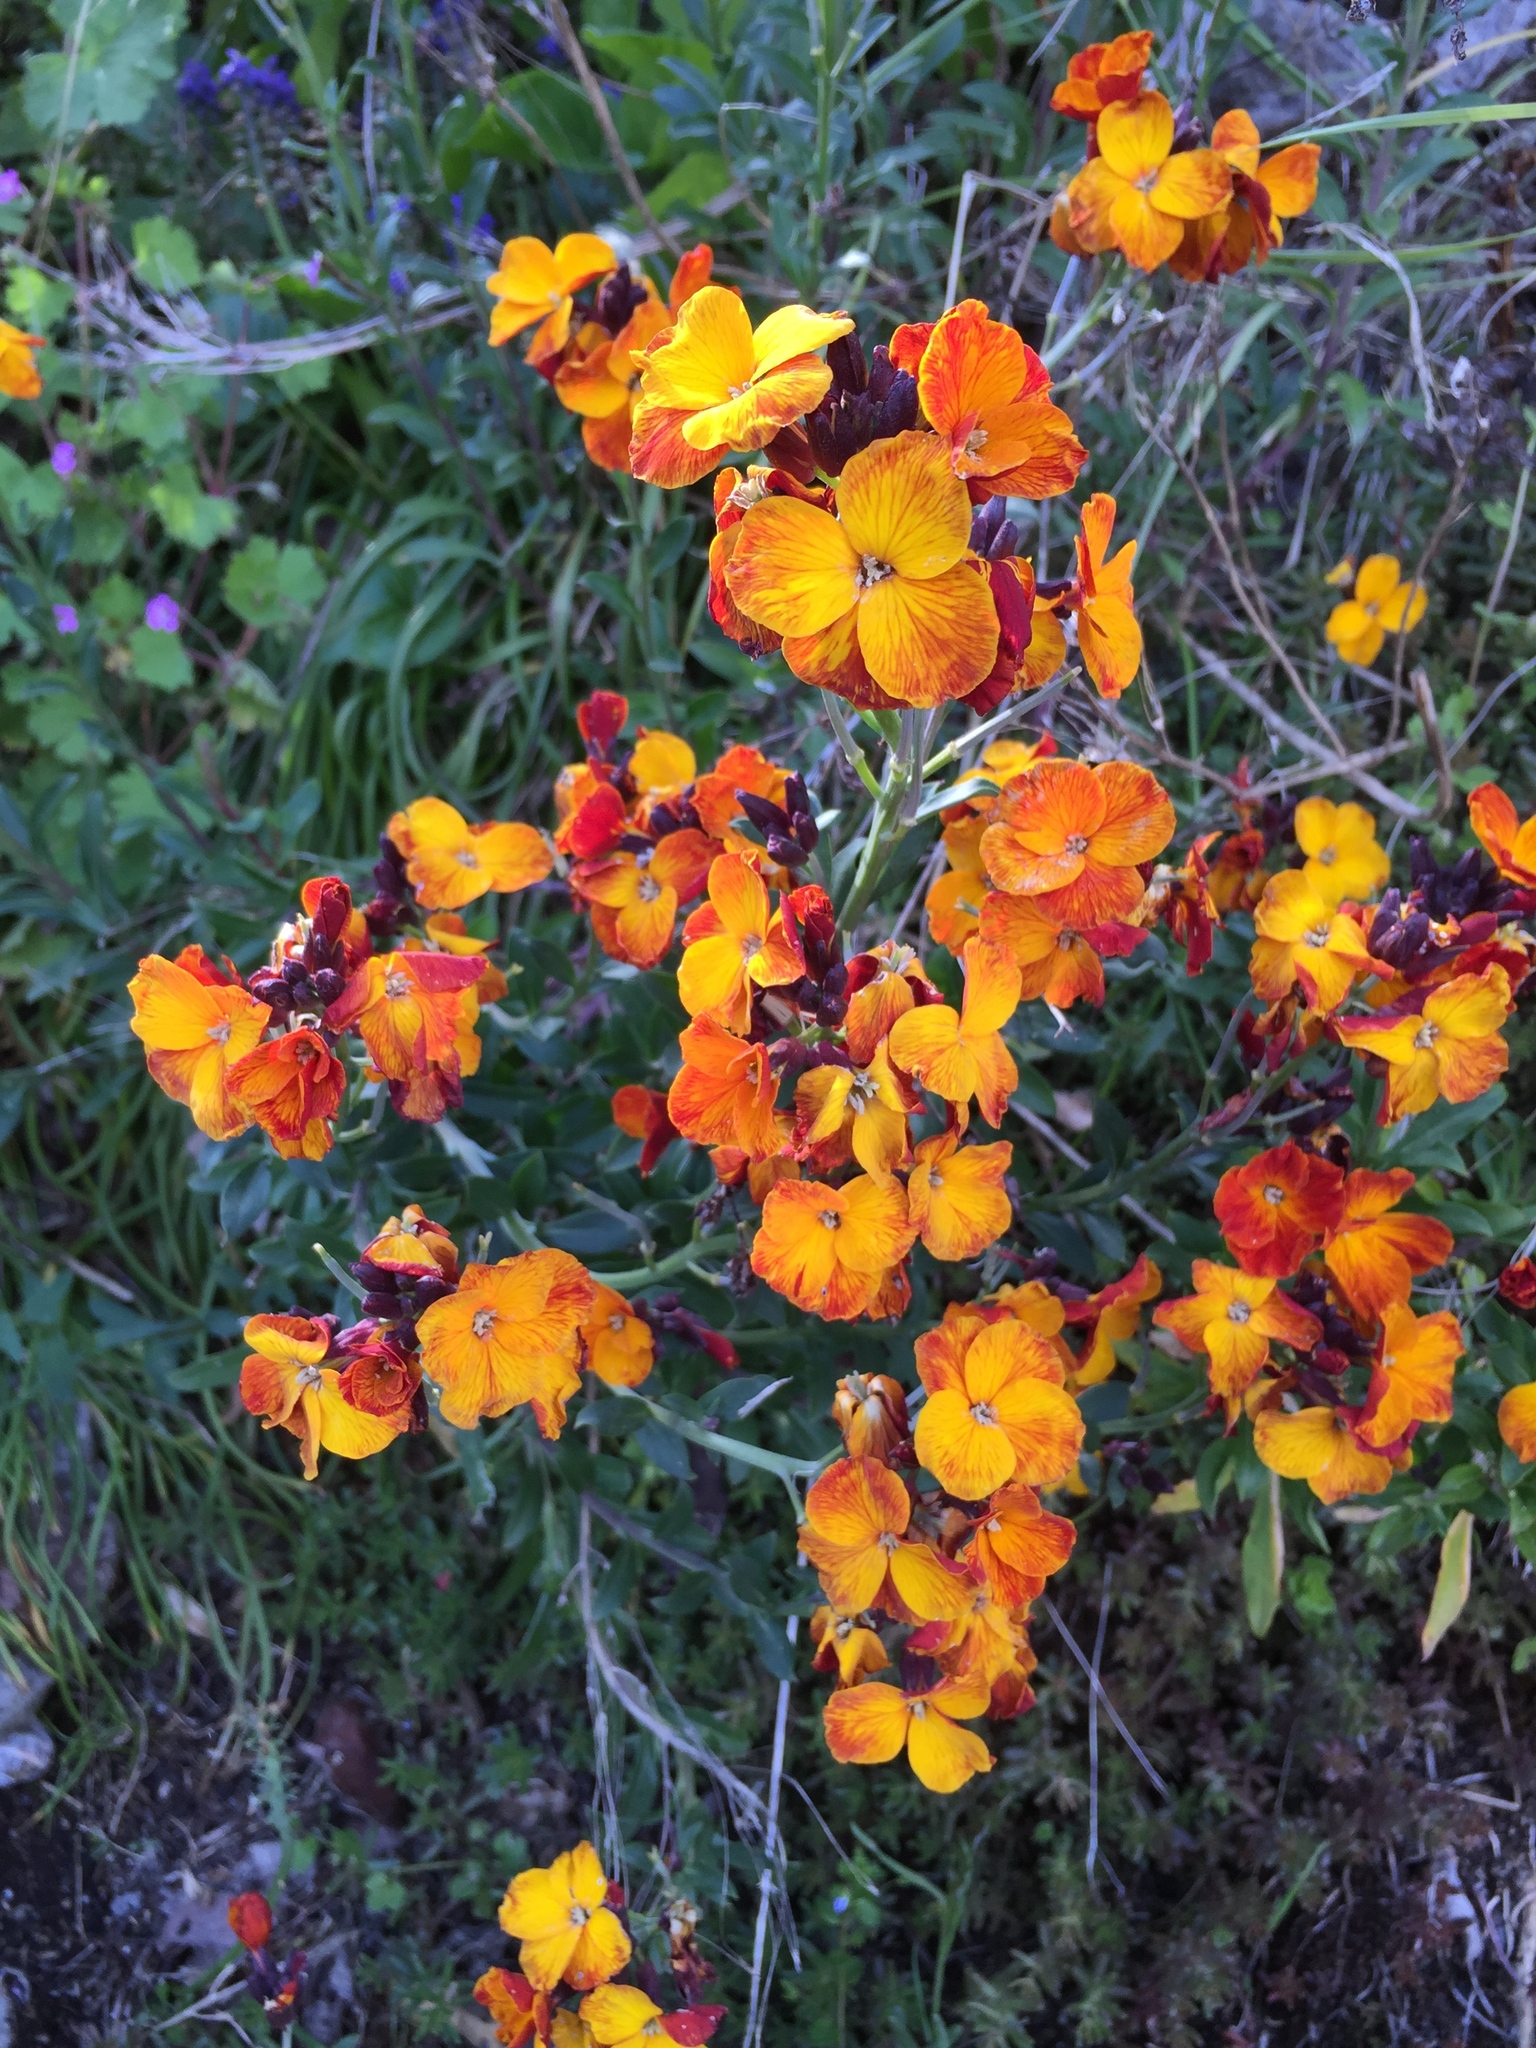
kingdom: Plantae
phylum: Tracheophyta
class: Magnoliopsida
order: Brassicales
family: Brassicaceae
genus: Erysimum
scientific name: Erysimum cheiri
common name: Wallflower
